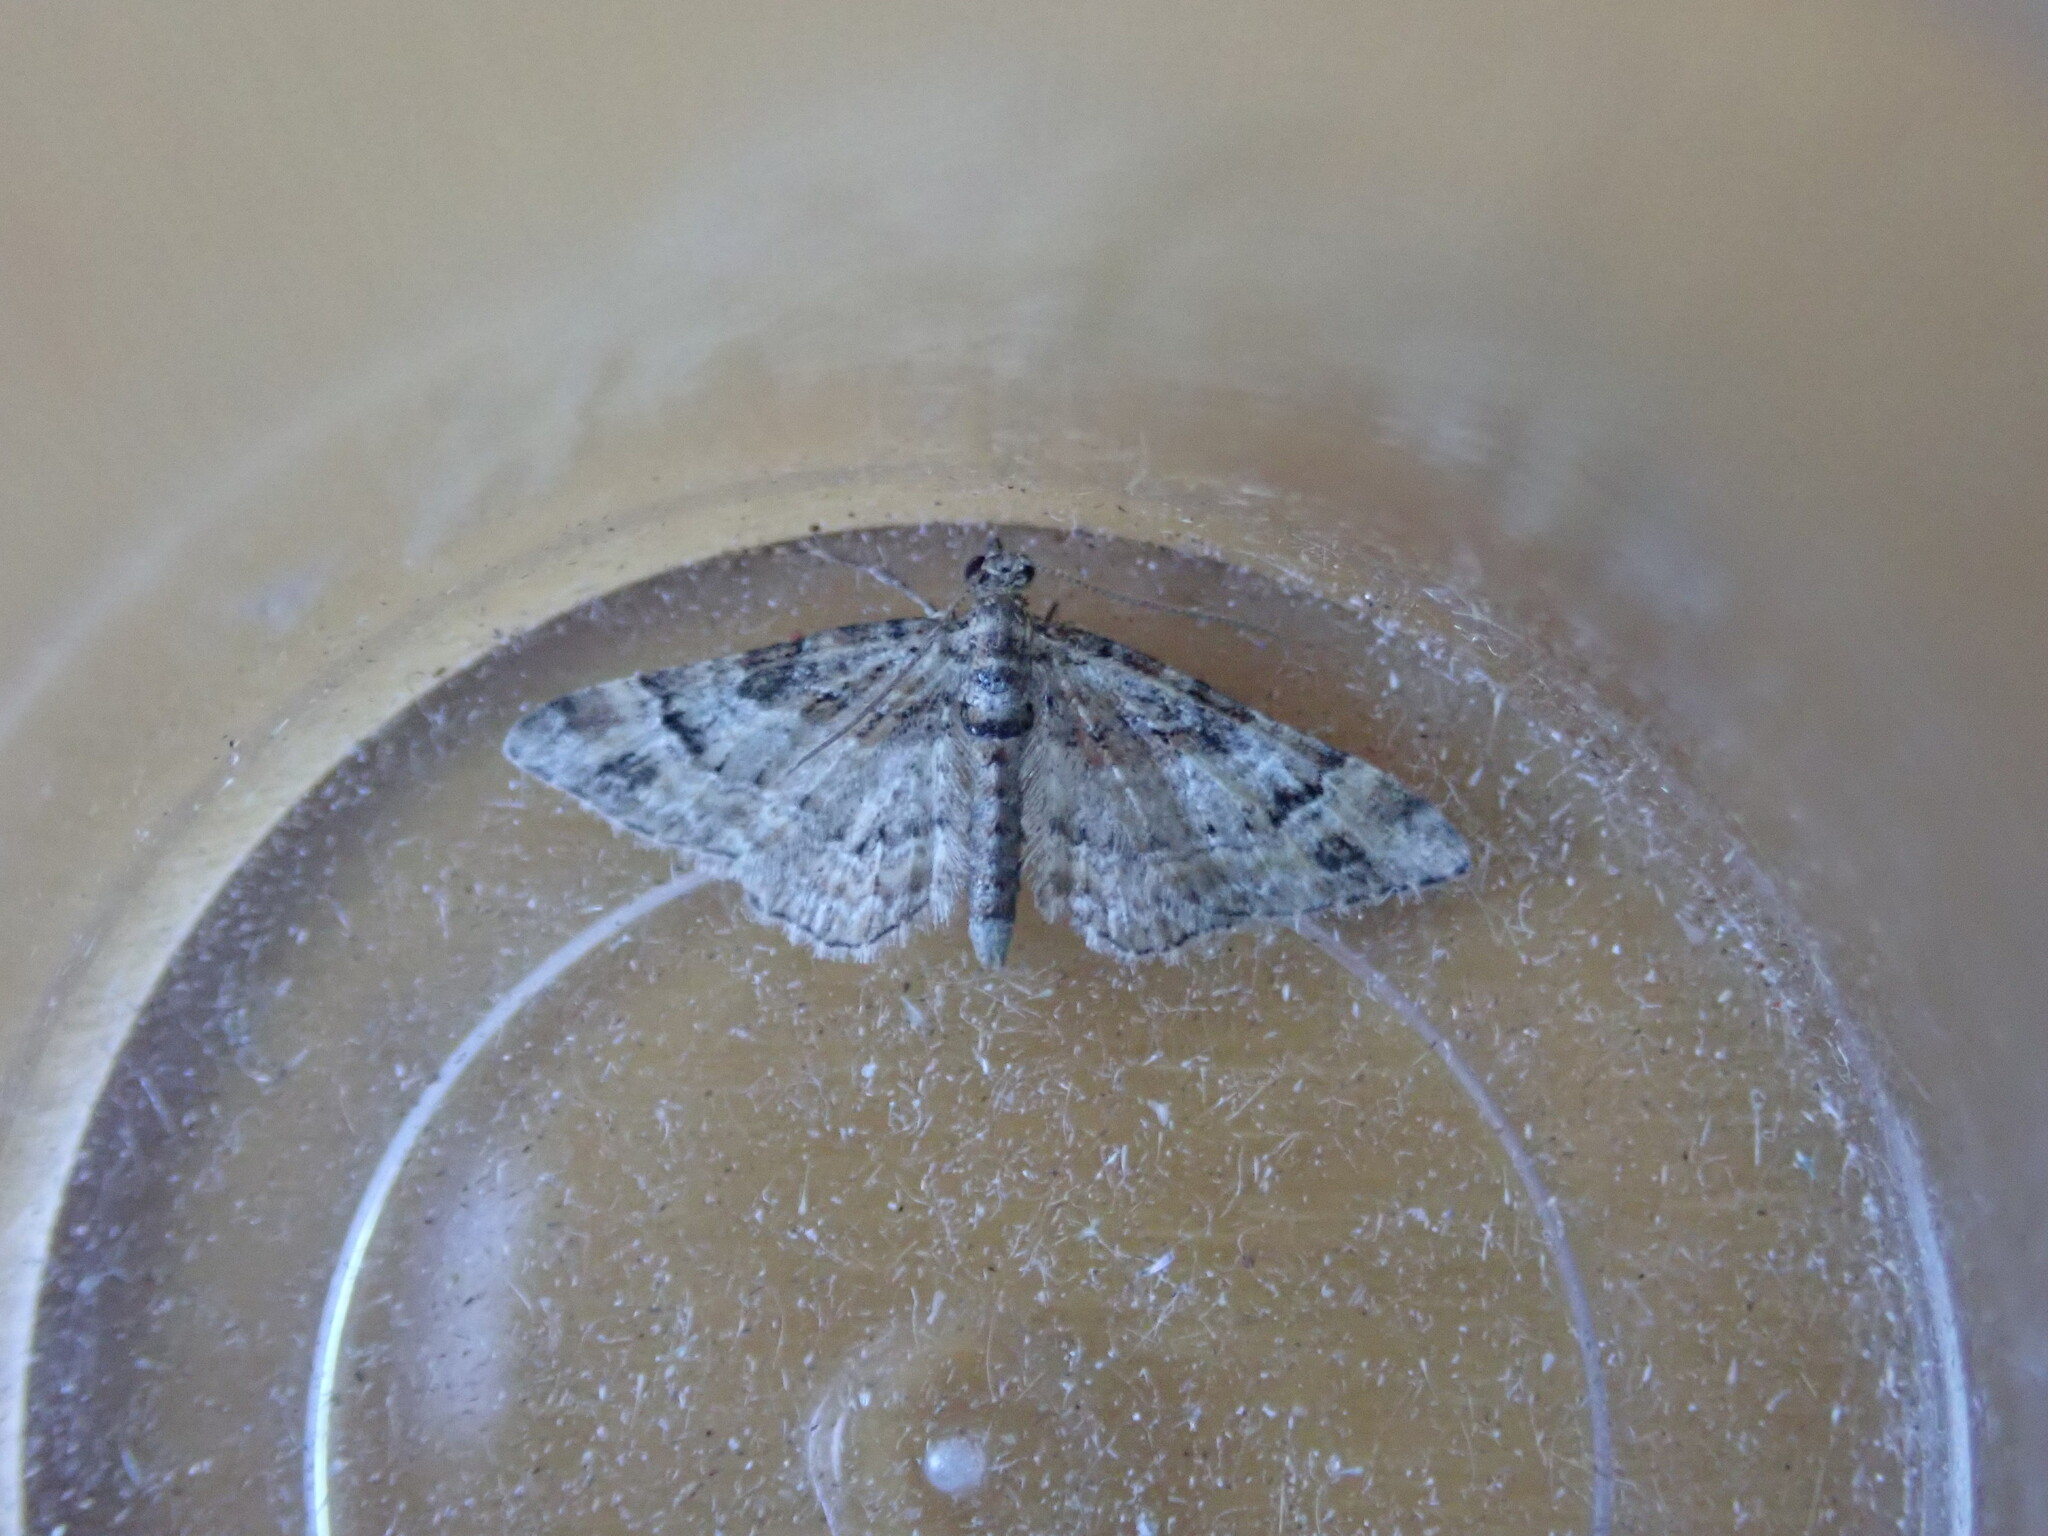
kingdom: Animalia
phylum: Arthropoda
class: Insecta
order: Lepidoptera
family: Geometridae
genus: Gymnoscelis
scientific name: Gymnoscelis rufifasciata
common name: Double-striped pug
